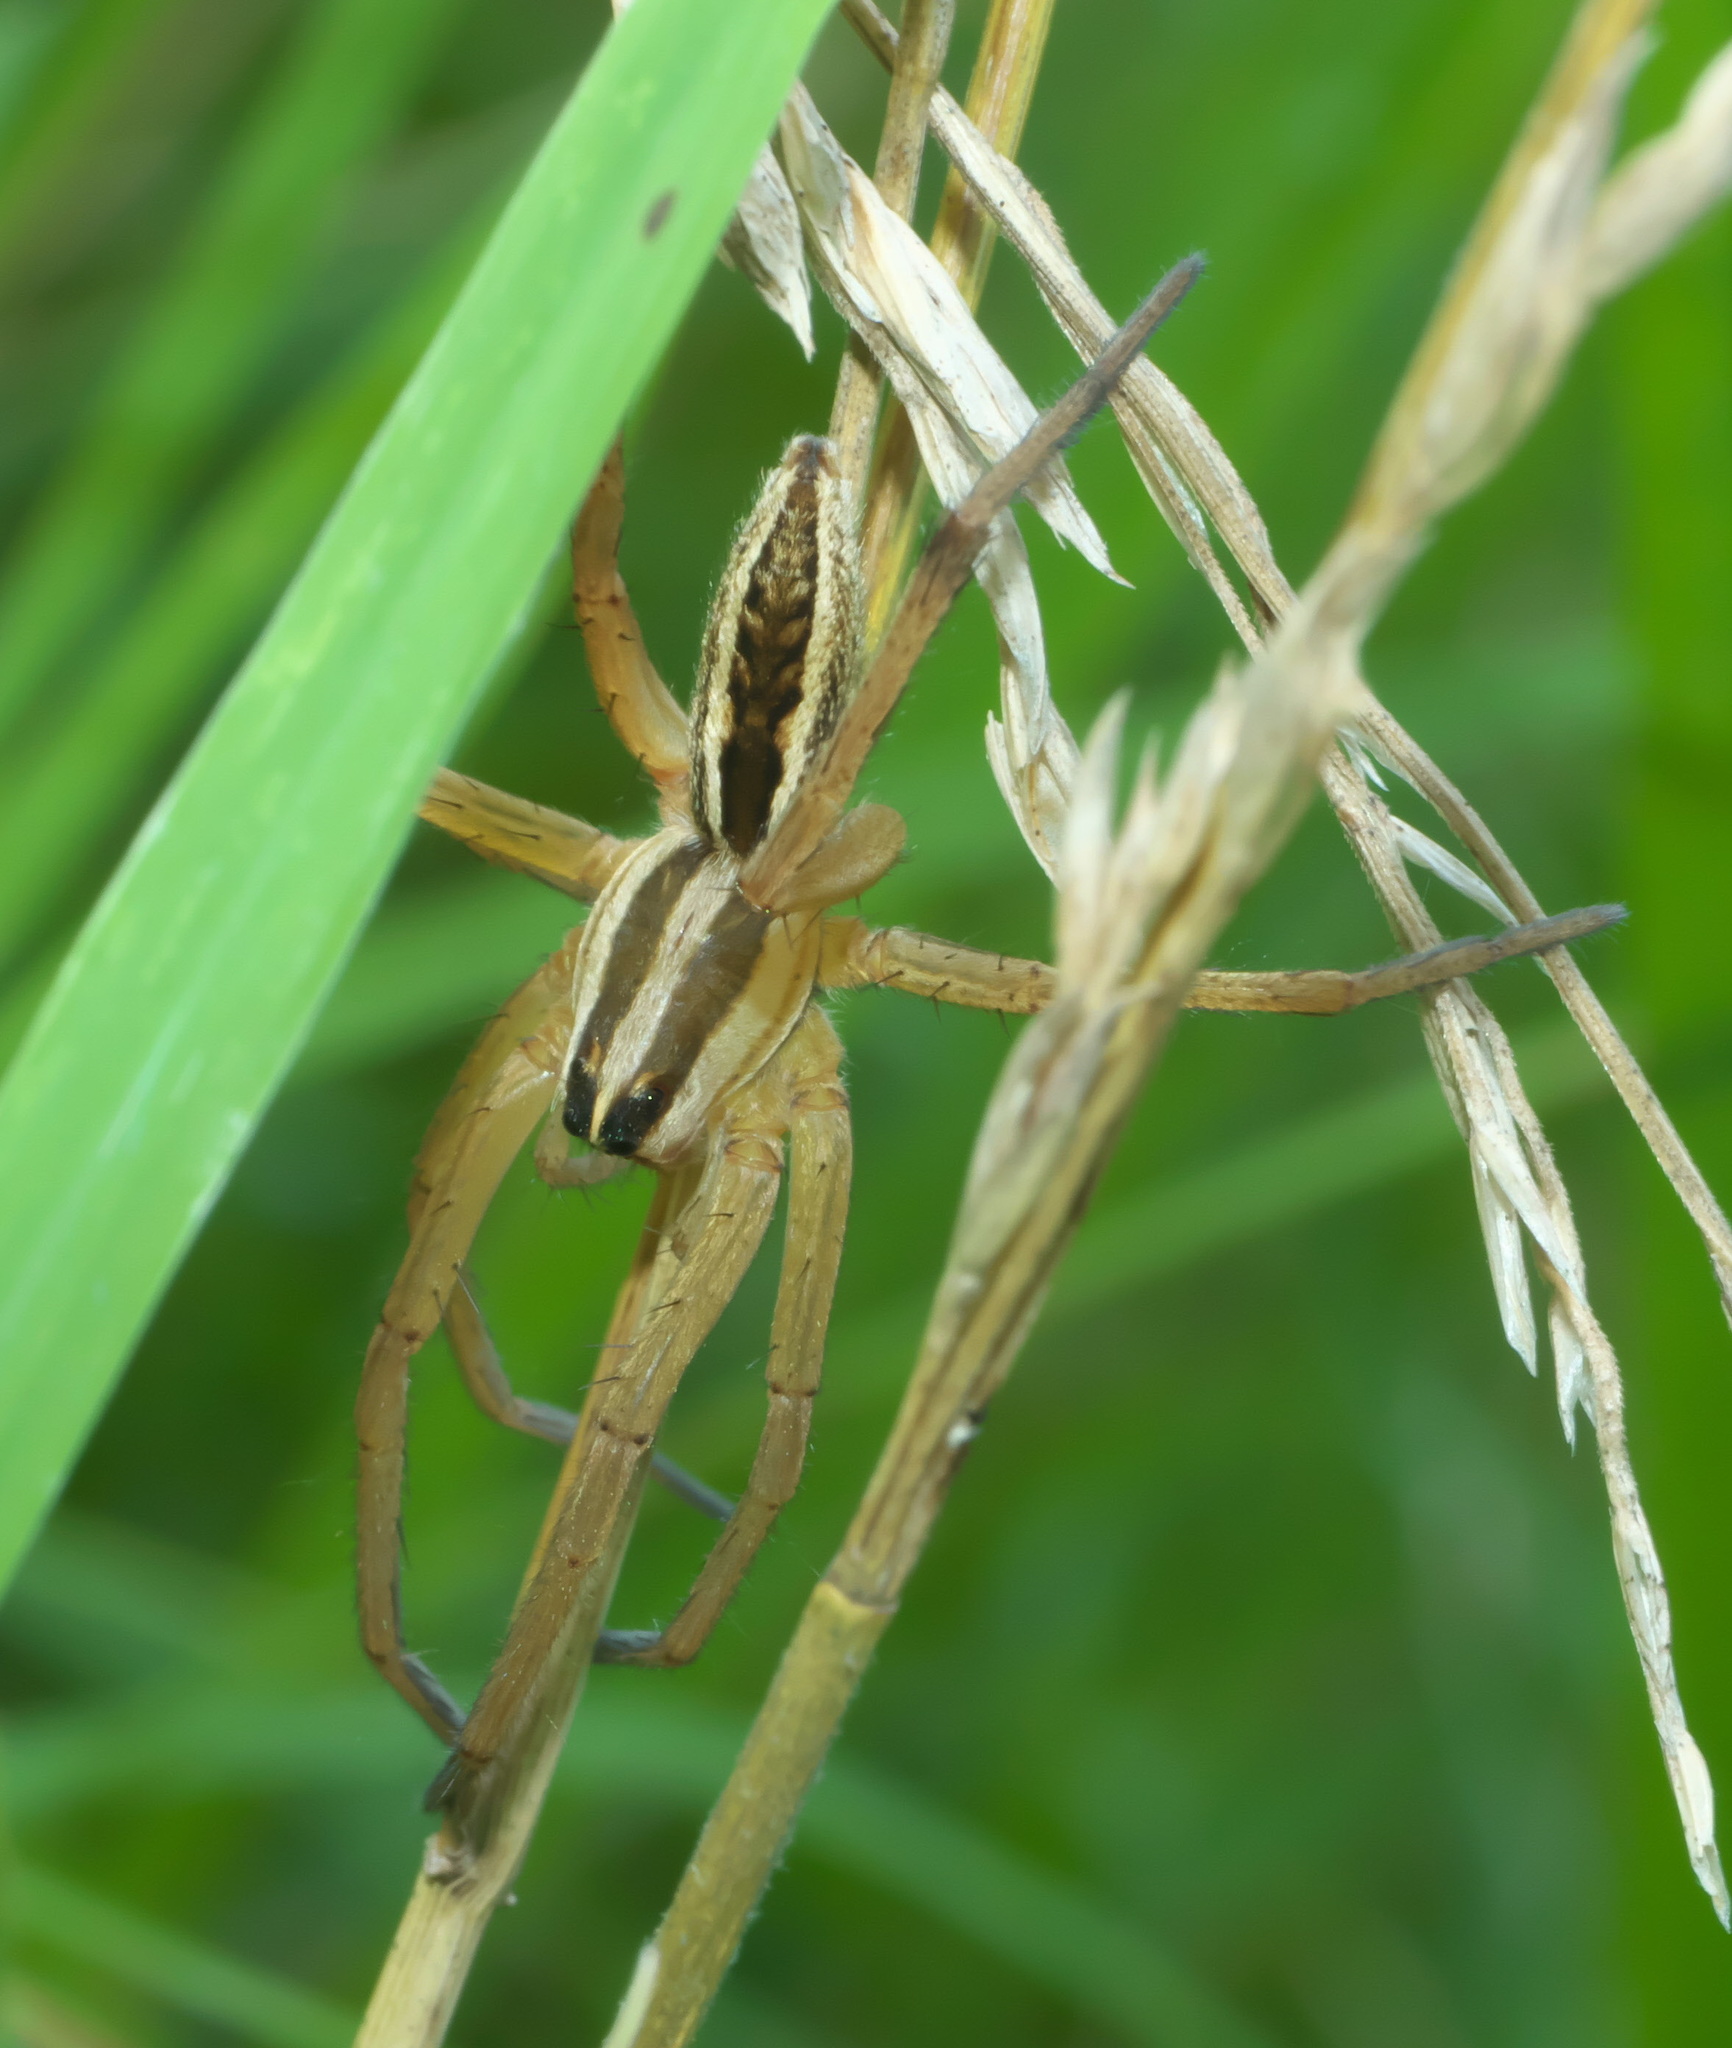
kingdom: Animalia
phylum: Arthropoda
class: Arachnida
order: Araneae
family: Lycosidae
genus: Rabidosa
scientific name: Rabidosa rabida
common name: Rabid wolf spider
